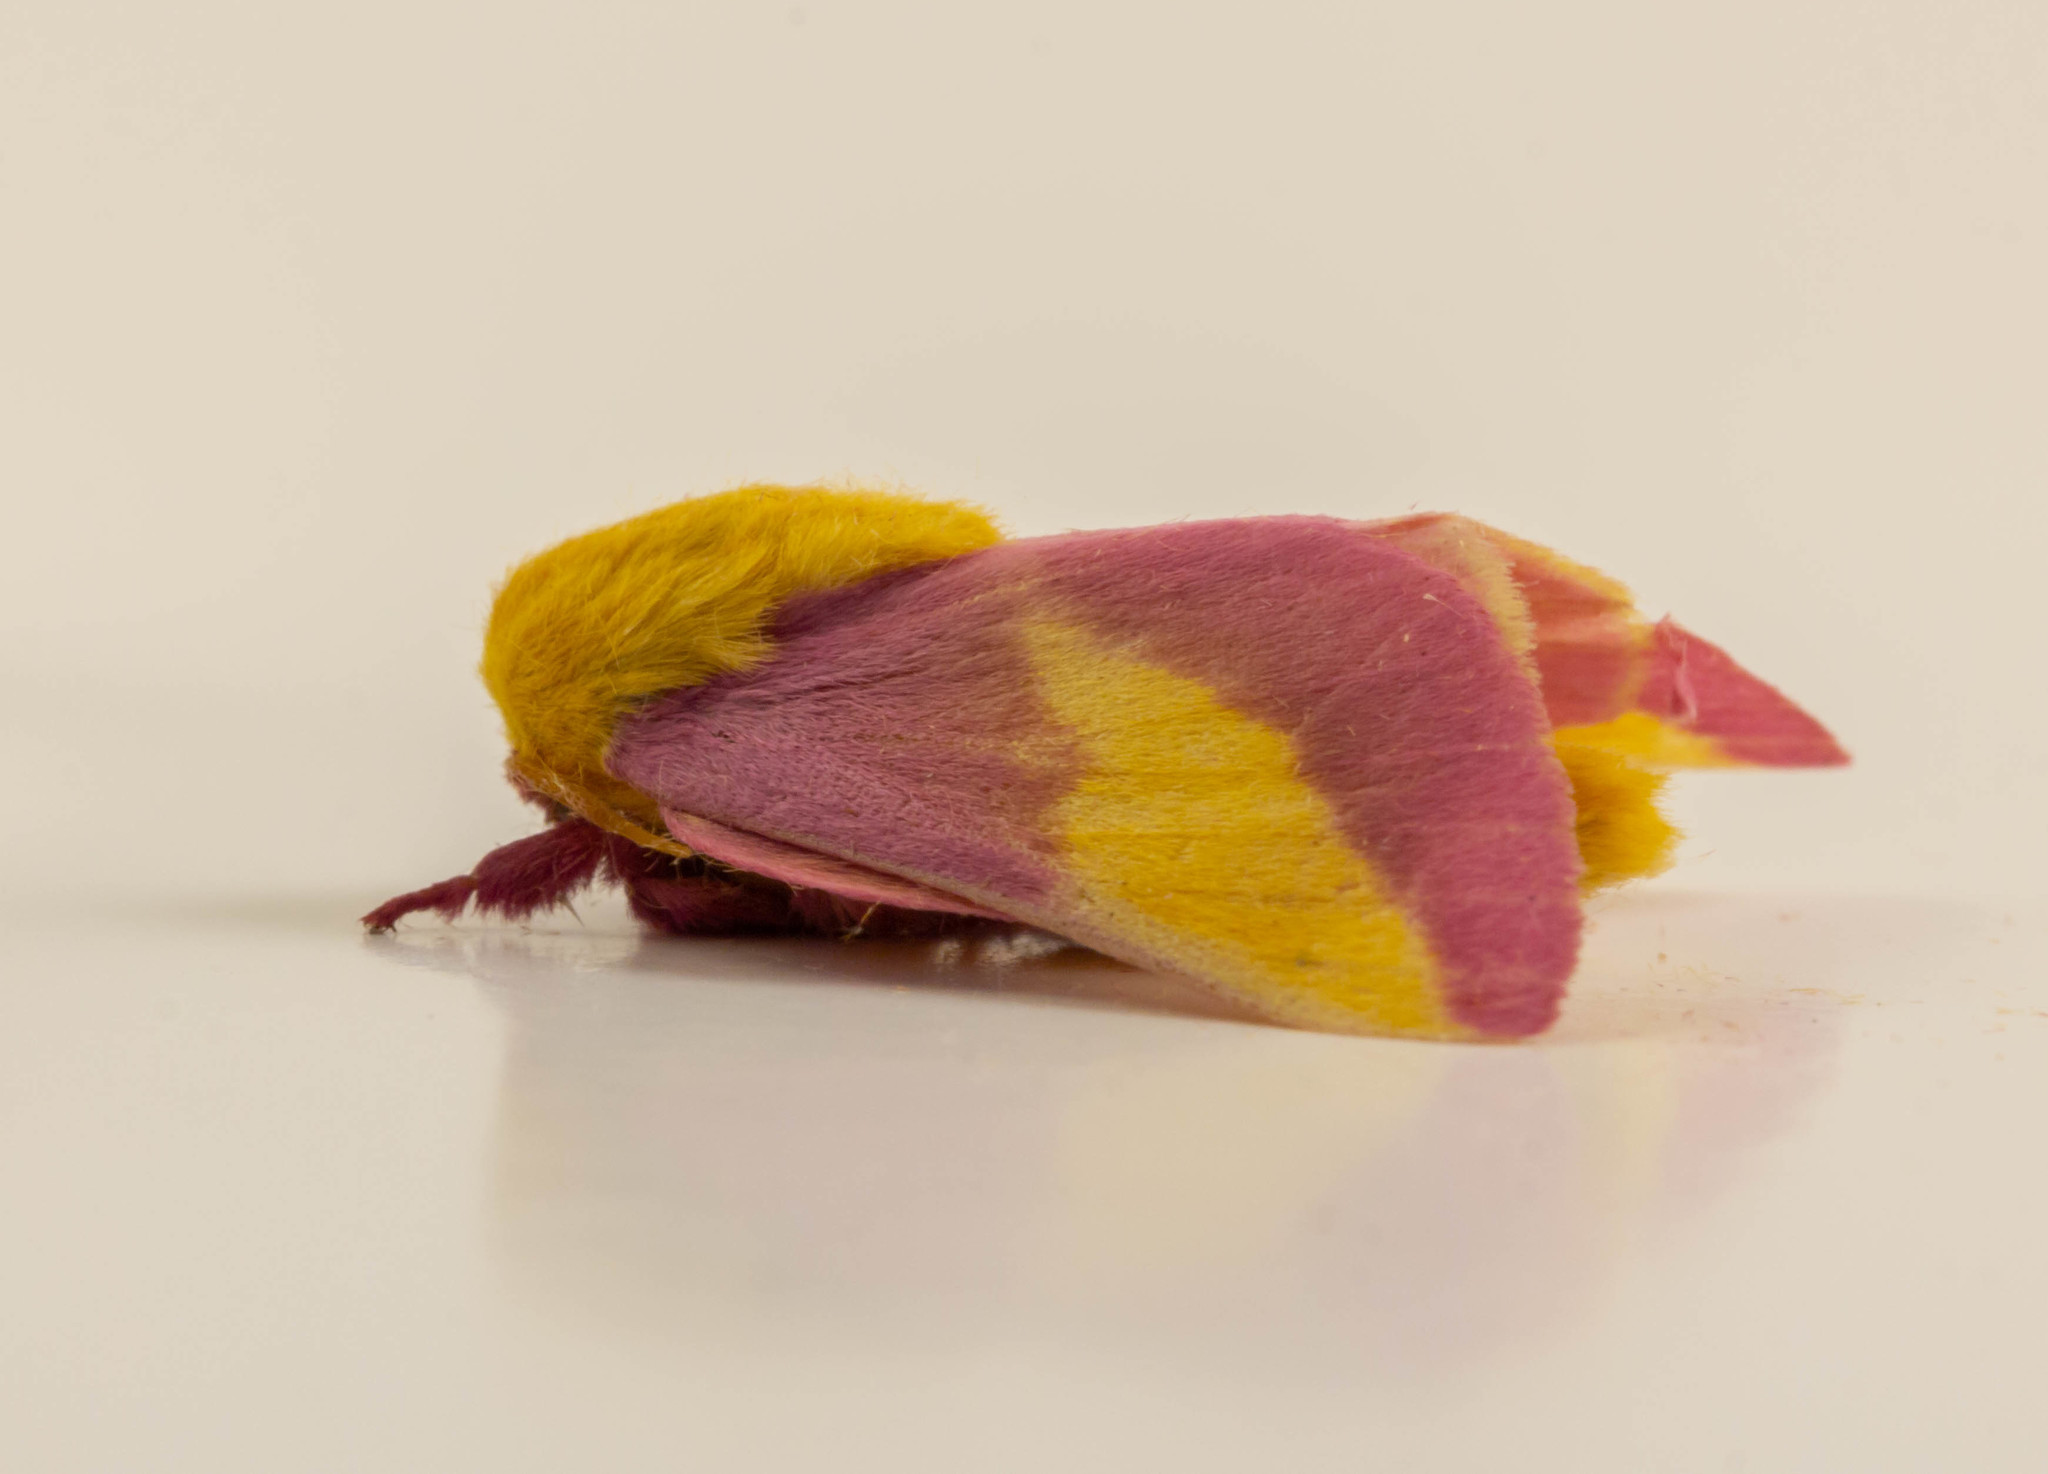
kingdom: Animalia
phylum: Arthropoda
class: Insecta
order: Lepidoptera
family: Saturniidae
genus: Dryocampa
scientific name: Dryocampa rubicunda
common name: Rosy maple moth
